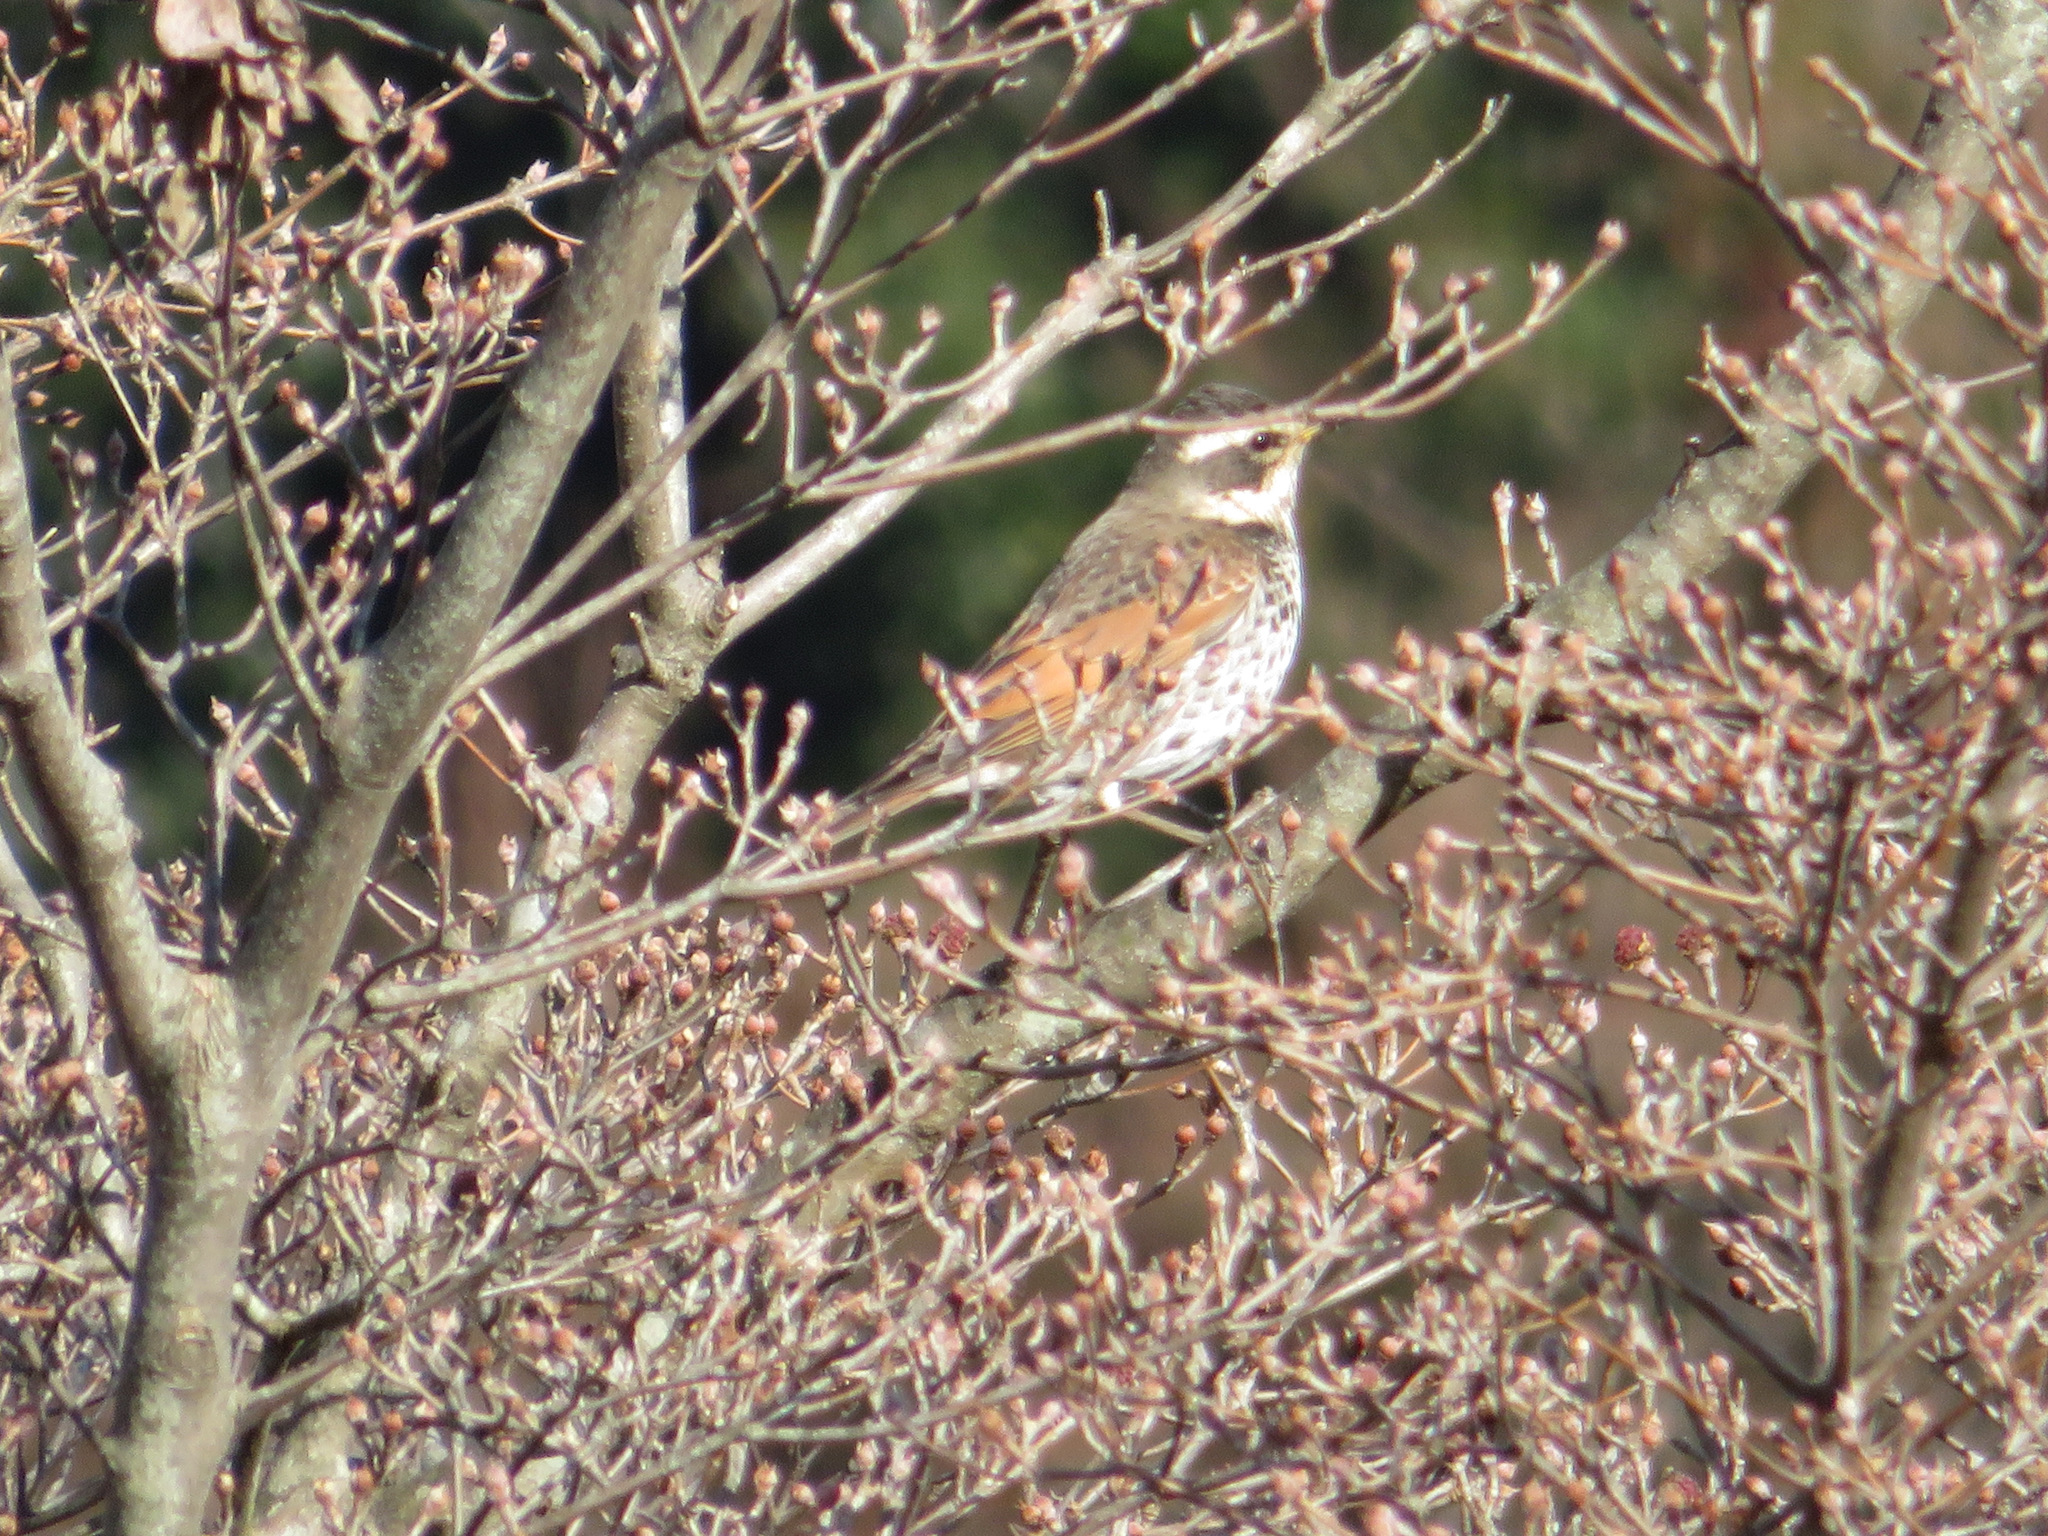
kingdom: Animalia
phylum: Chordata
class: Aves
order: Passeriformes
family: Turdidae
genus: Turdus
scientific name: Turdus eunomus
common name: Dusky thrush
